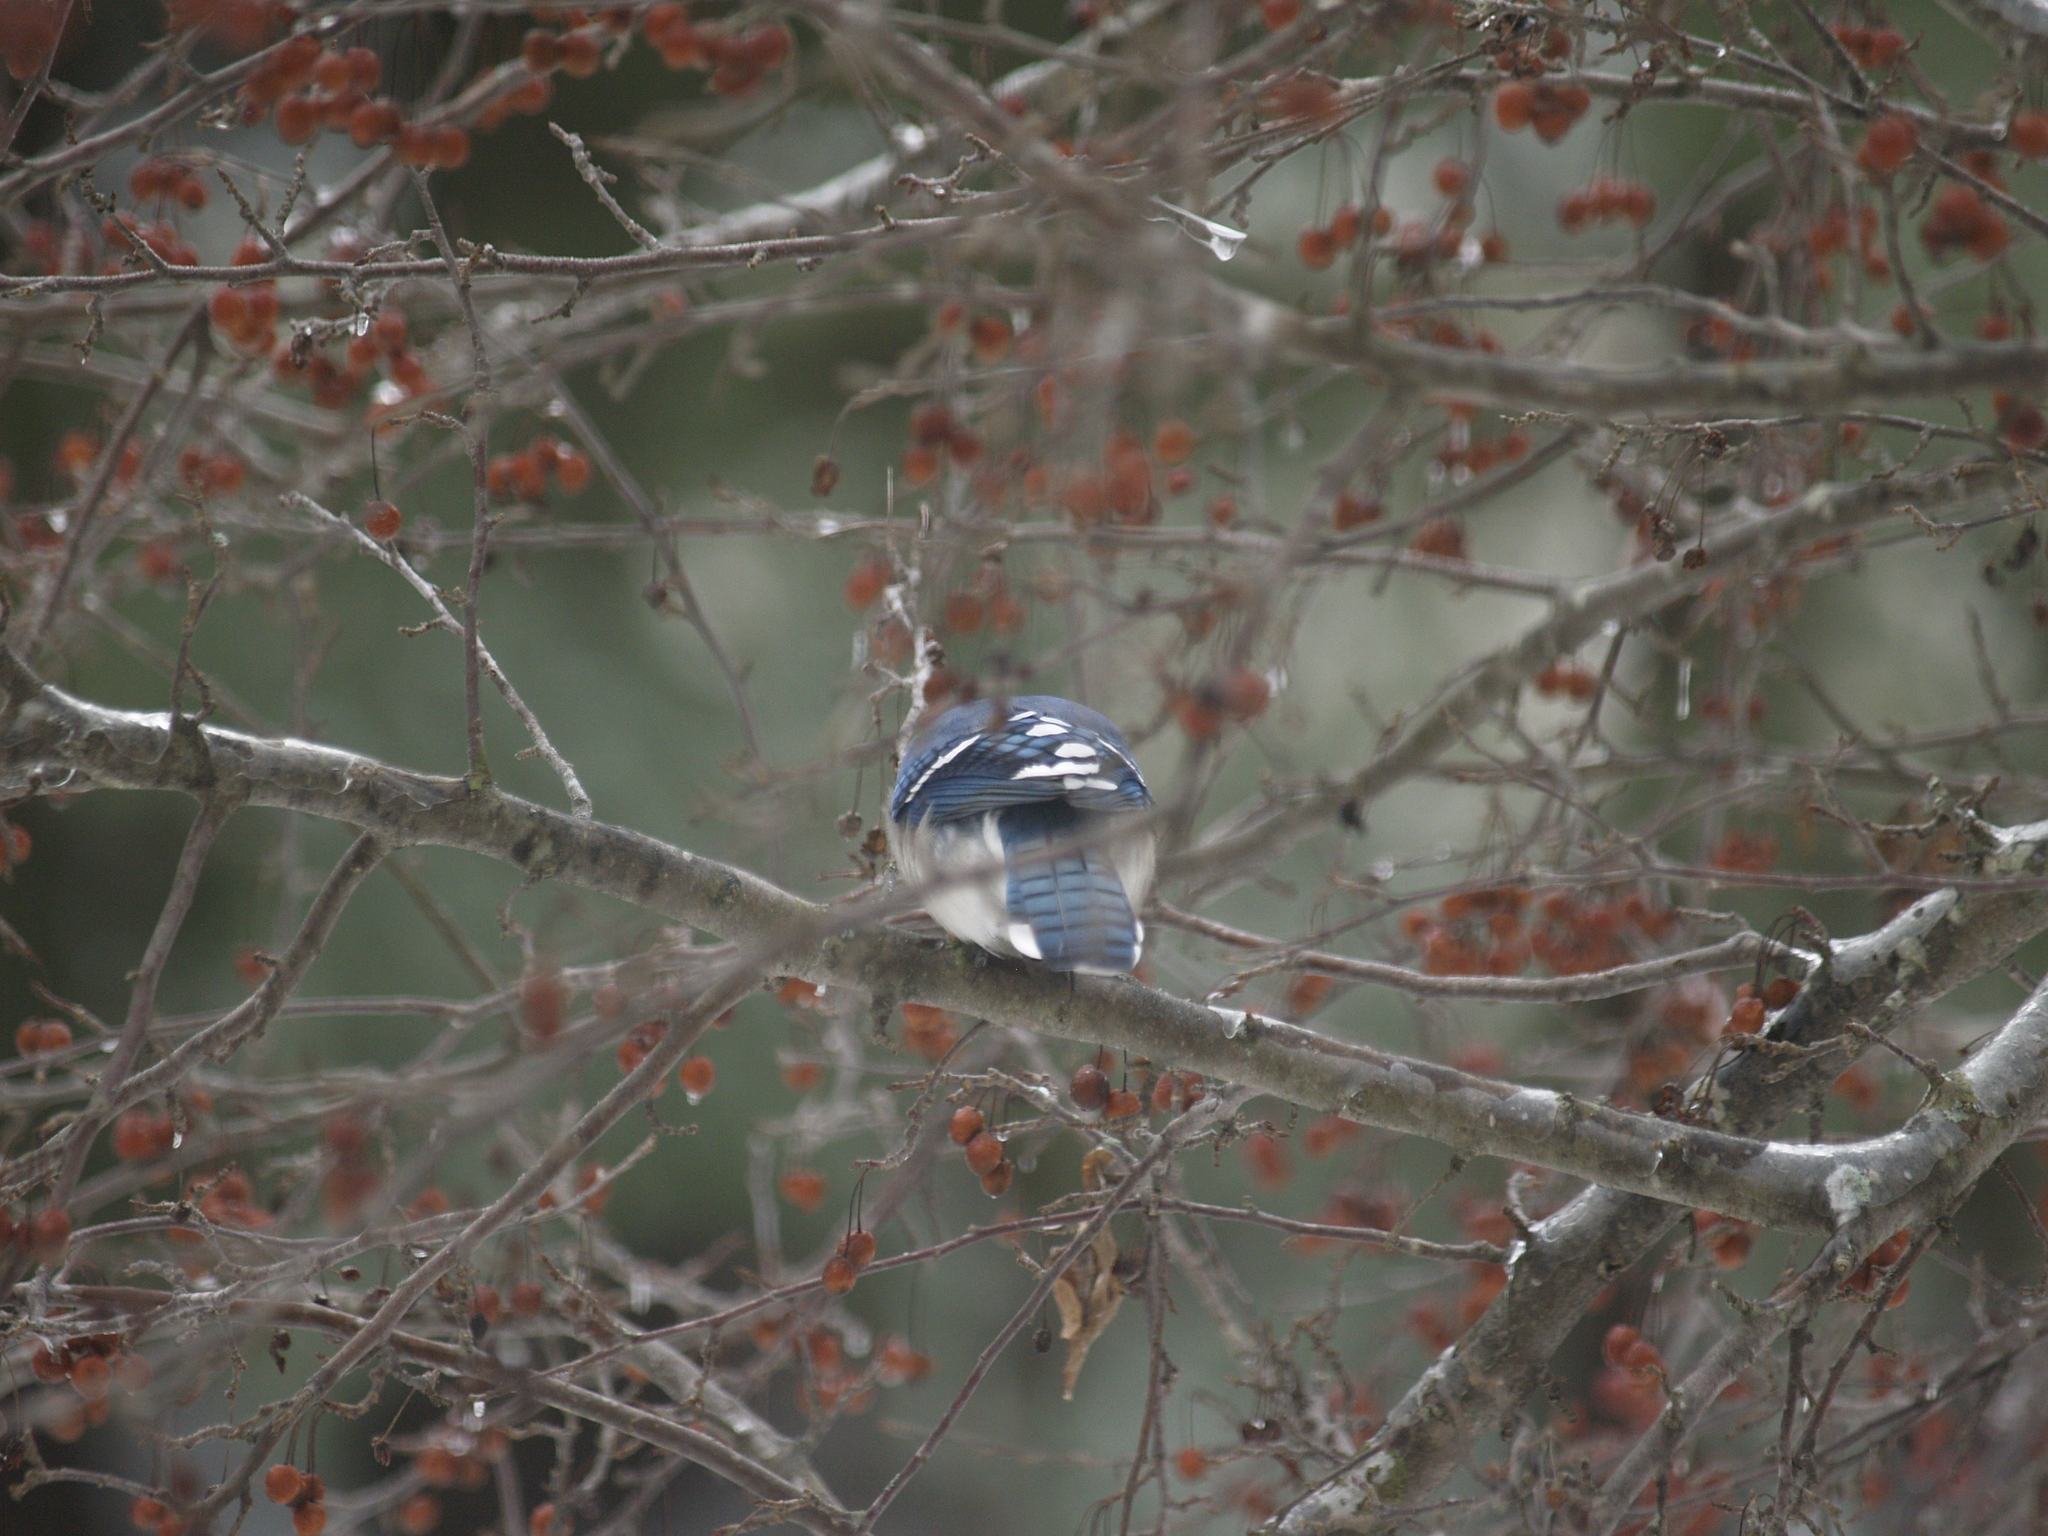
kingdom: Animalia
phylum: Chordata
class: Aves
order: Passeriformes
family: Corvidae
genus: Cyanocitta
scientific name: Cyanocitta cristata
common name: Blue jay
